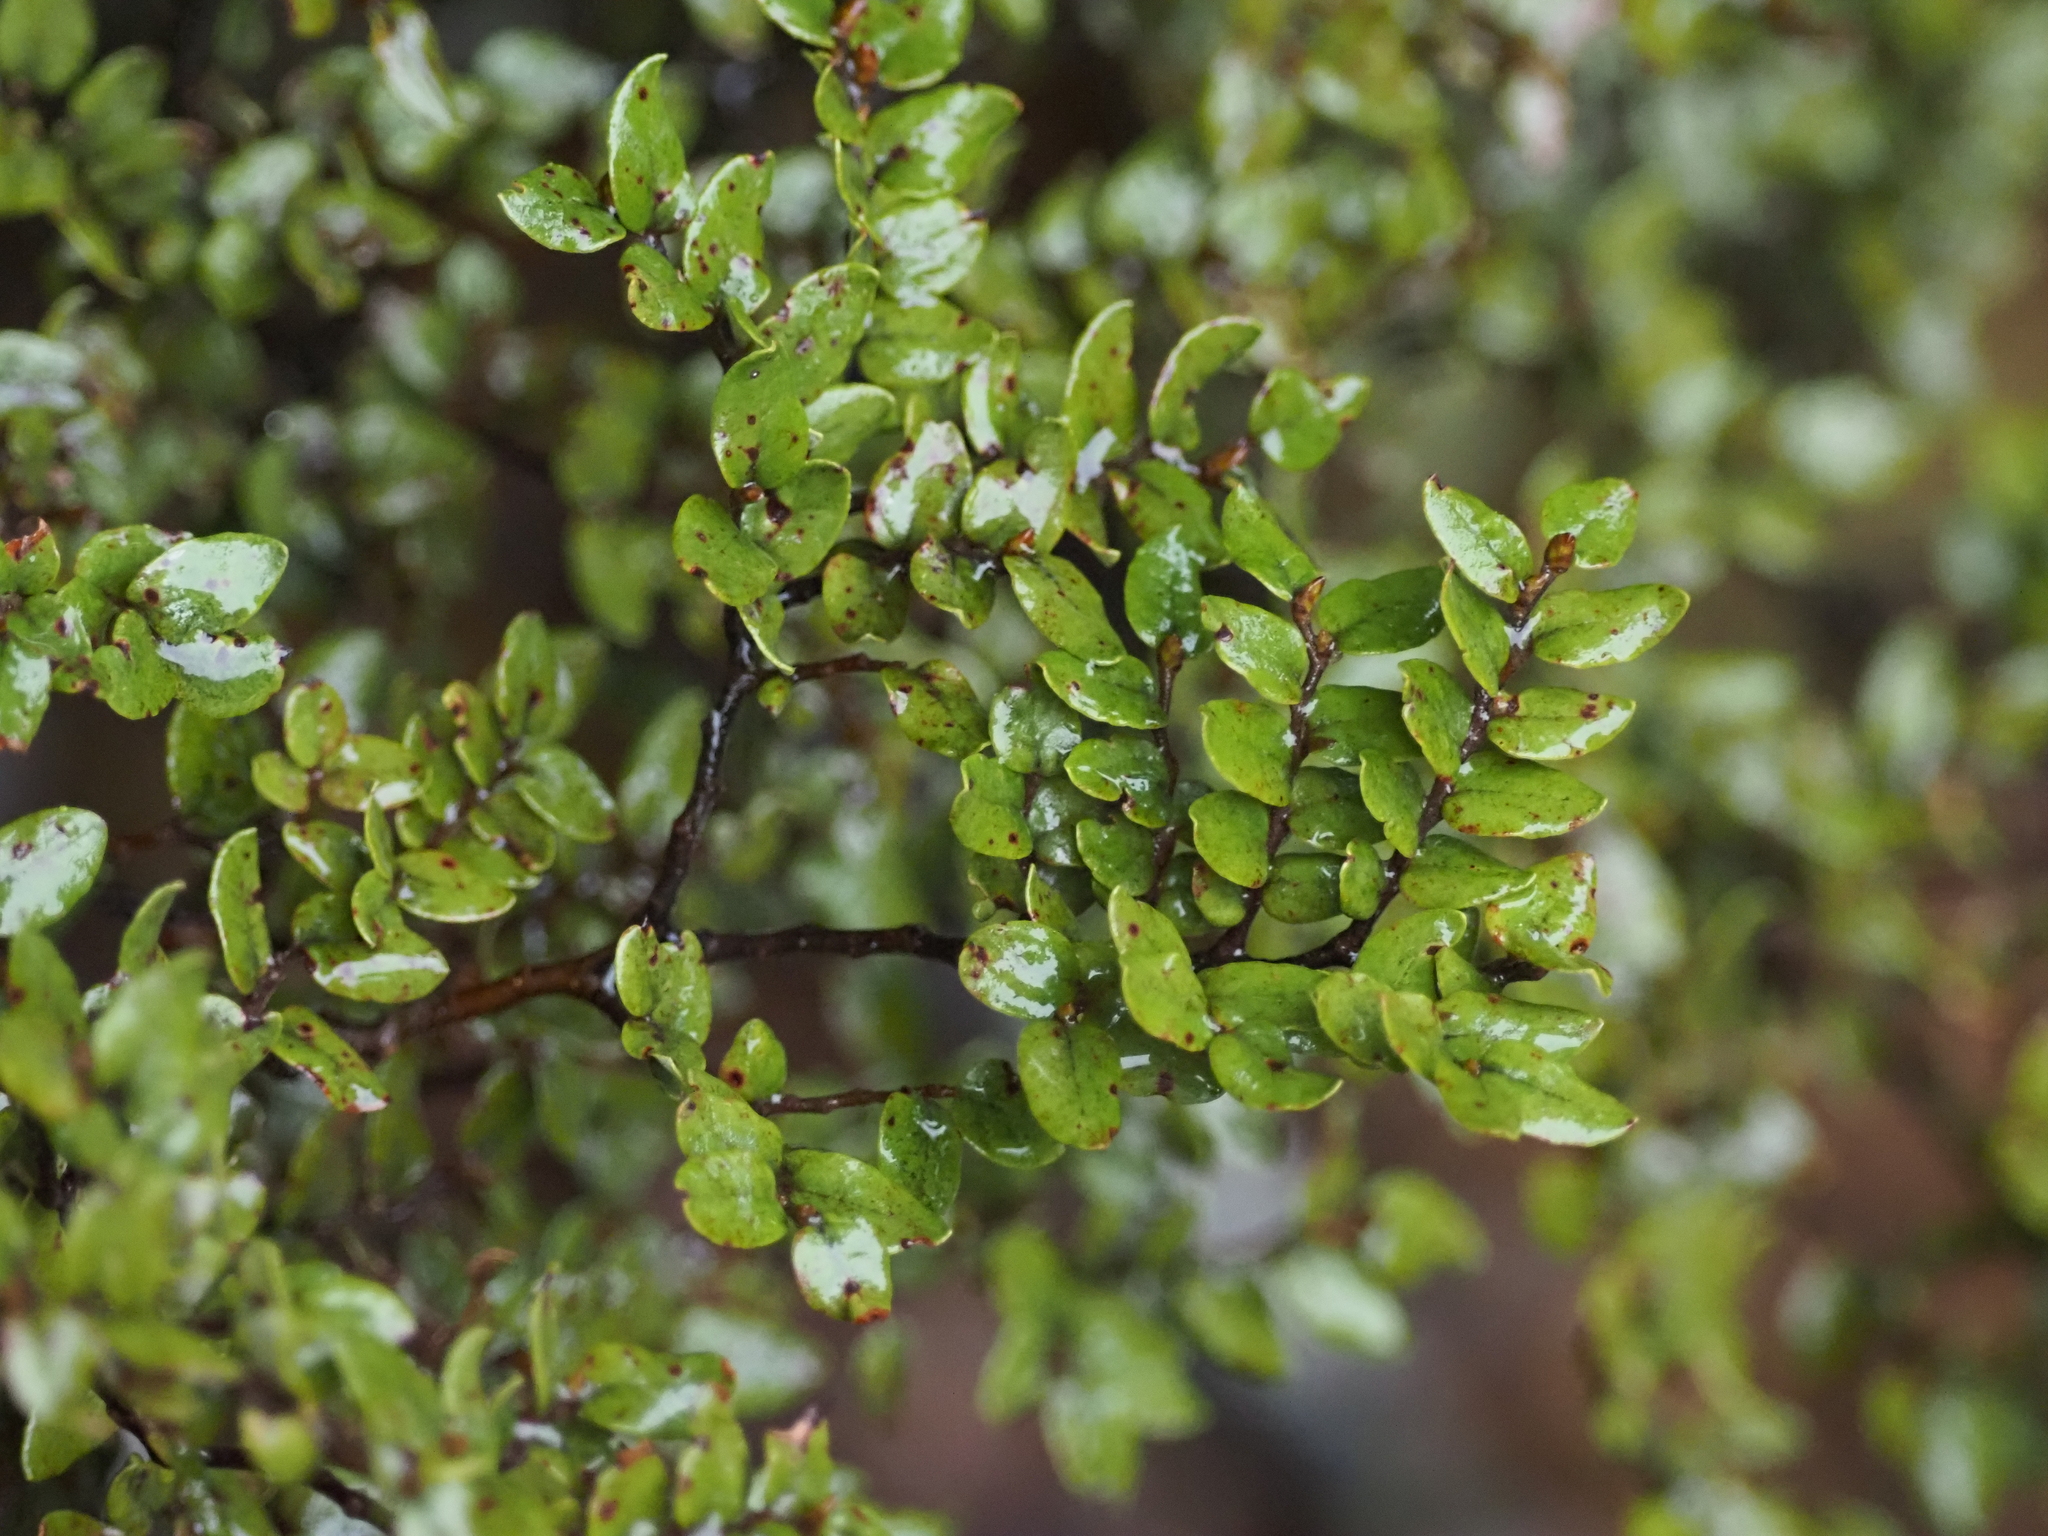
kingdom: Plantae
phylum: Tracheophyta
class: Magnoliopsida
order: Fagales
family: Nothofagaceae
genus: Nothofagus
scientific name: Nothofagus cliffortioides
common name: Mountain beech
